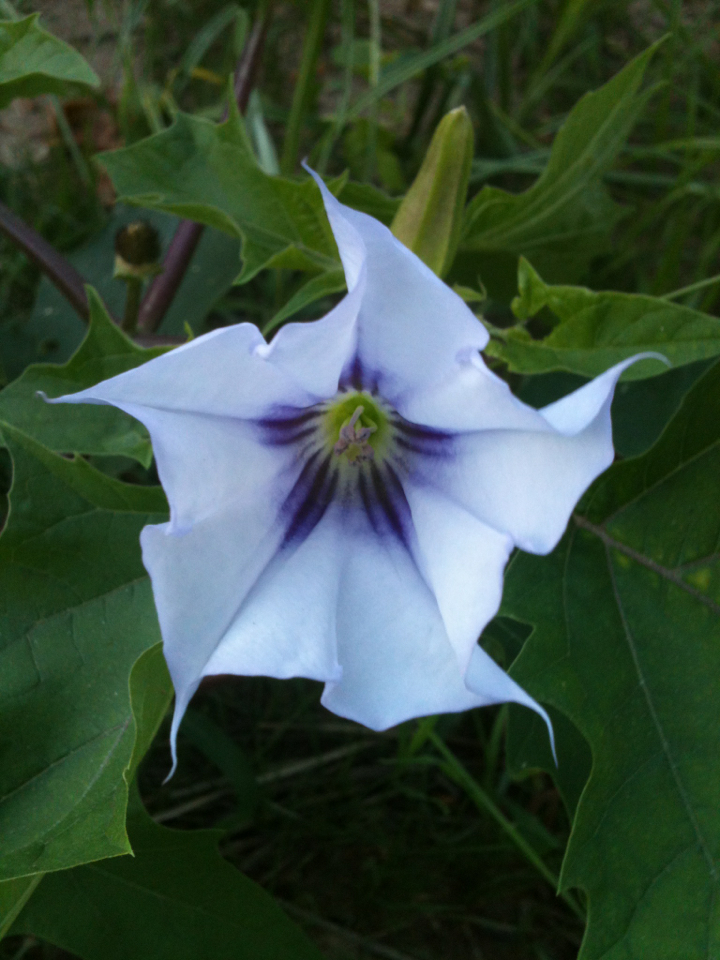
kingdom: Plantae
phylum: Tracheophyta
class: Magnoliopsida
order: Solanales
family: Solanaceae
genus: Datura
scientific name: Datura stramonium
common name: Thorn-apple
